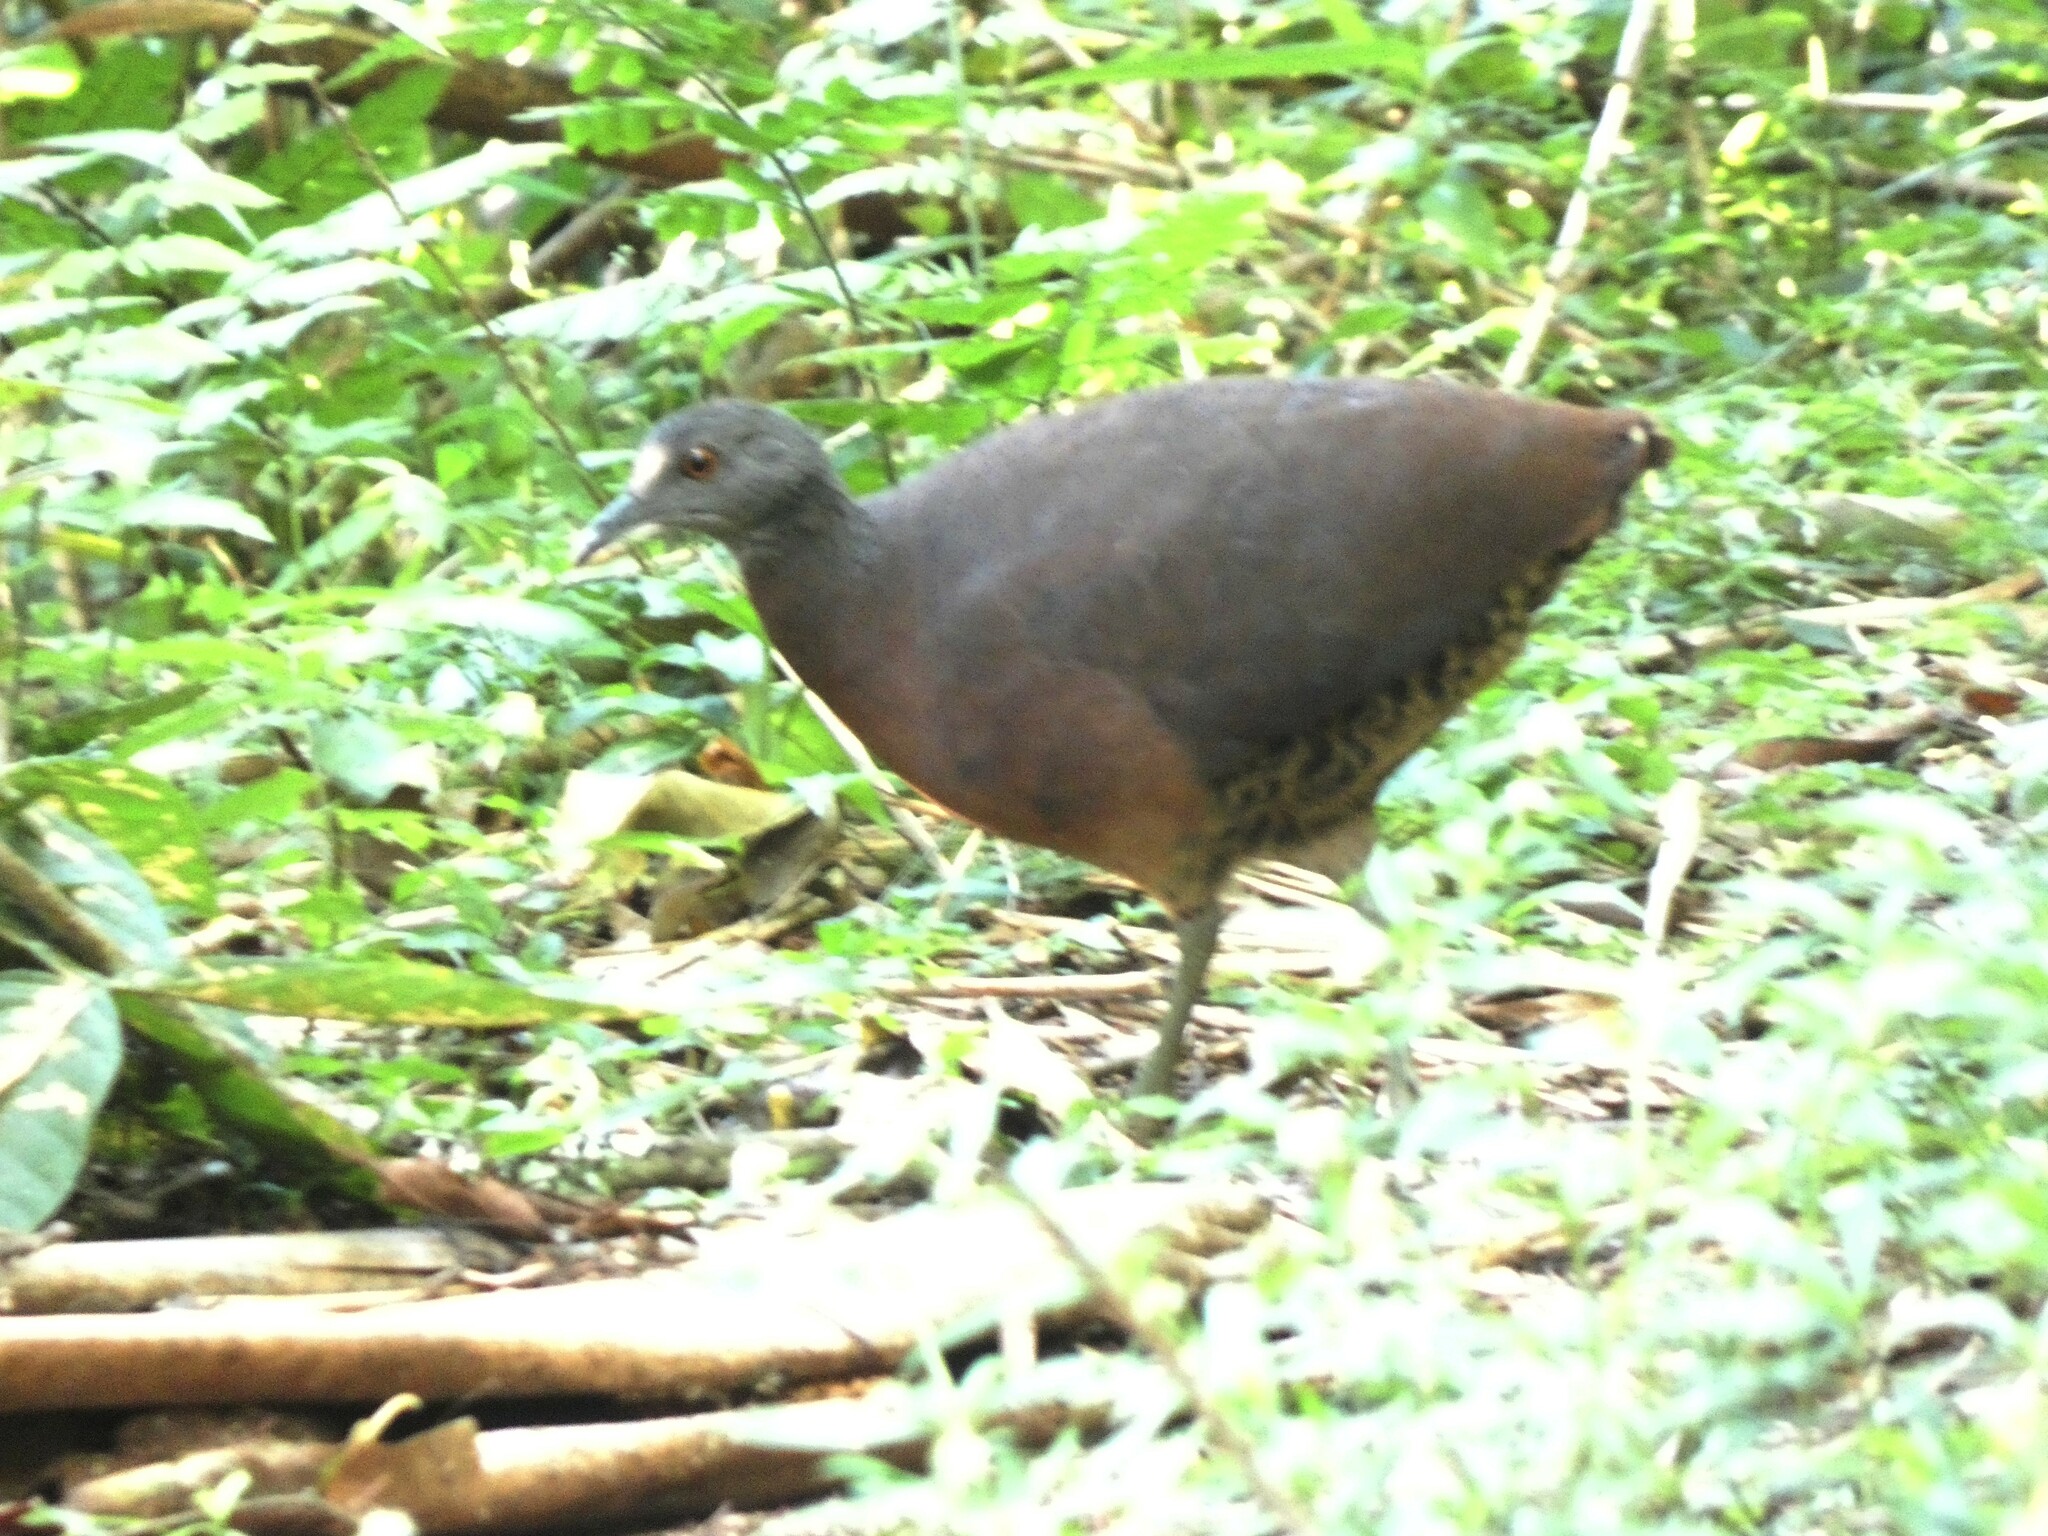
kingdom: Animalia
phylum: Chordata
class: Aves
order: Tinamiformes
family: Tinamidae
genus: Crypturellus
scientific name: Crypturellus obsoletus
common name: Brown tinamou
